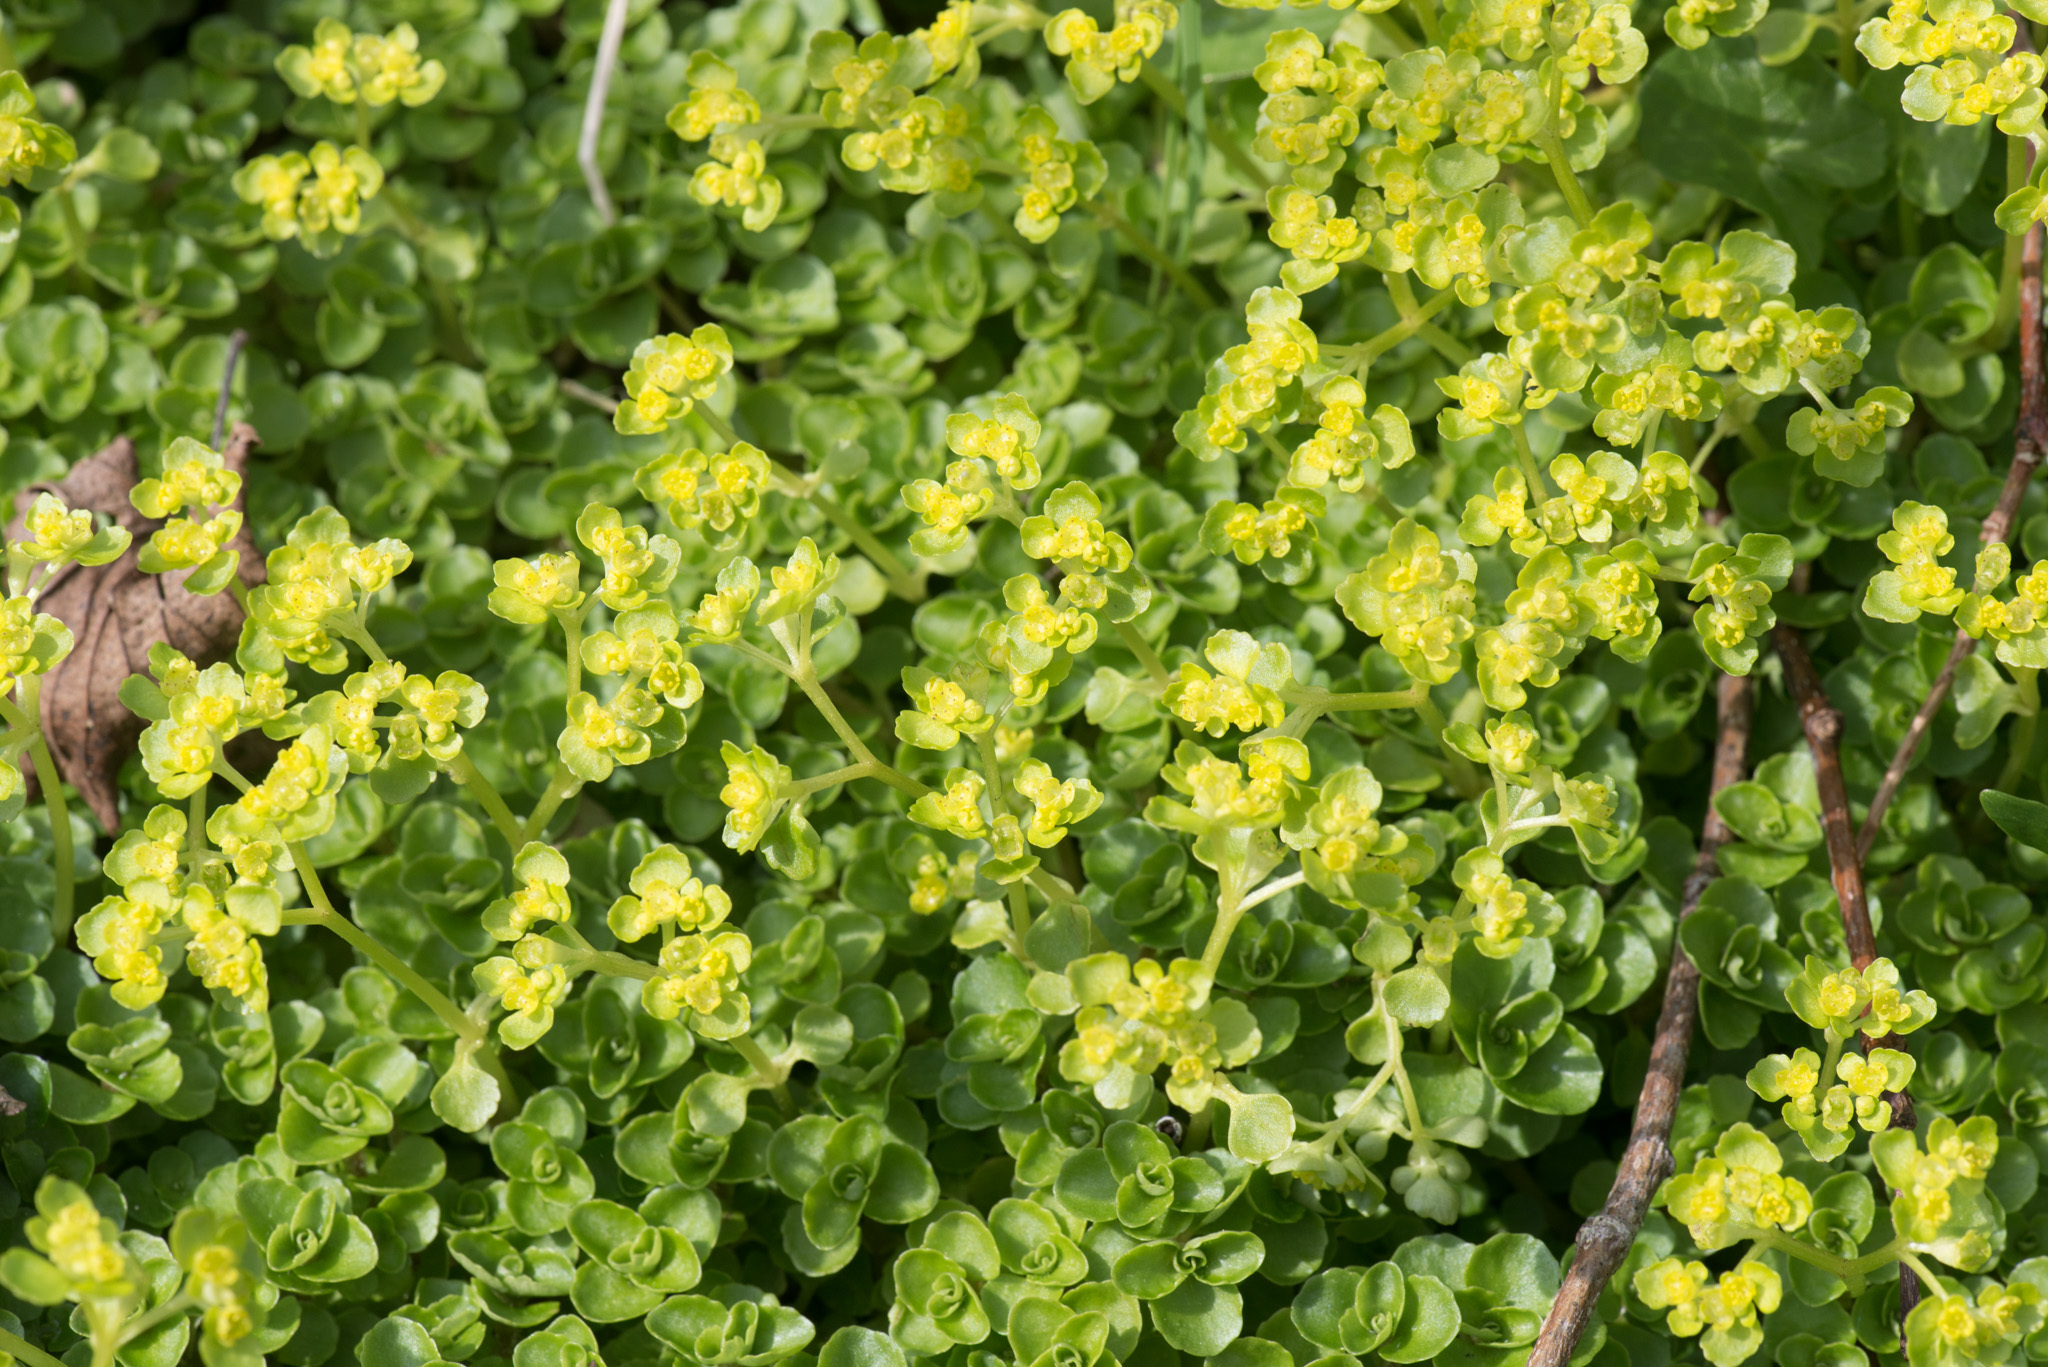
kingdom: Plantae
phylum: Tracheophyta
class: Magnoliopsida
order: Saxifragales
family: Saxifragaceae
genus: Chrysosplenium
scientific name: Chrysosplenium oppositifolium
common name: Opposite-leaved golden-saxifrage
